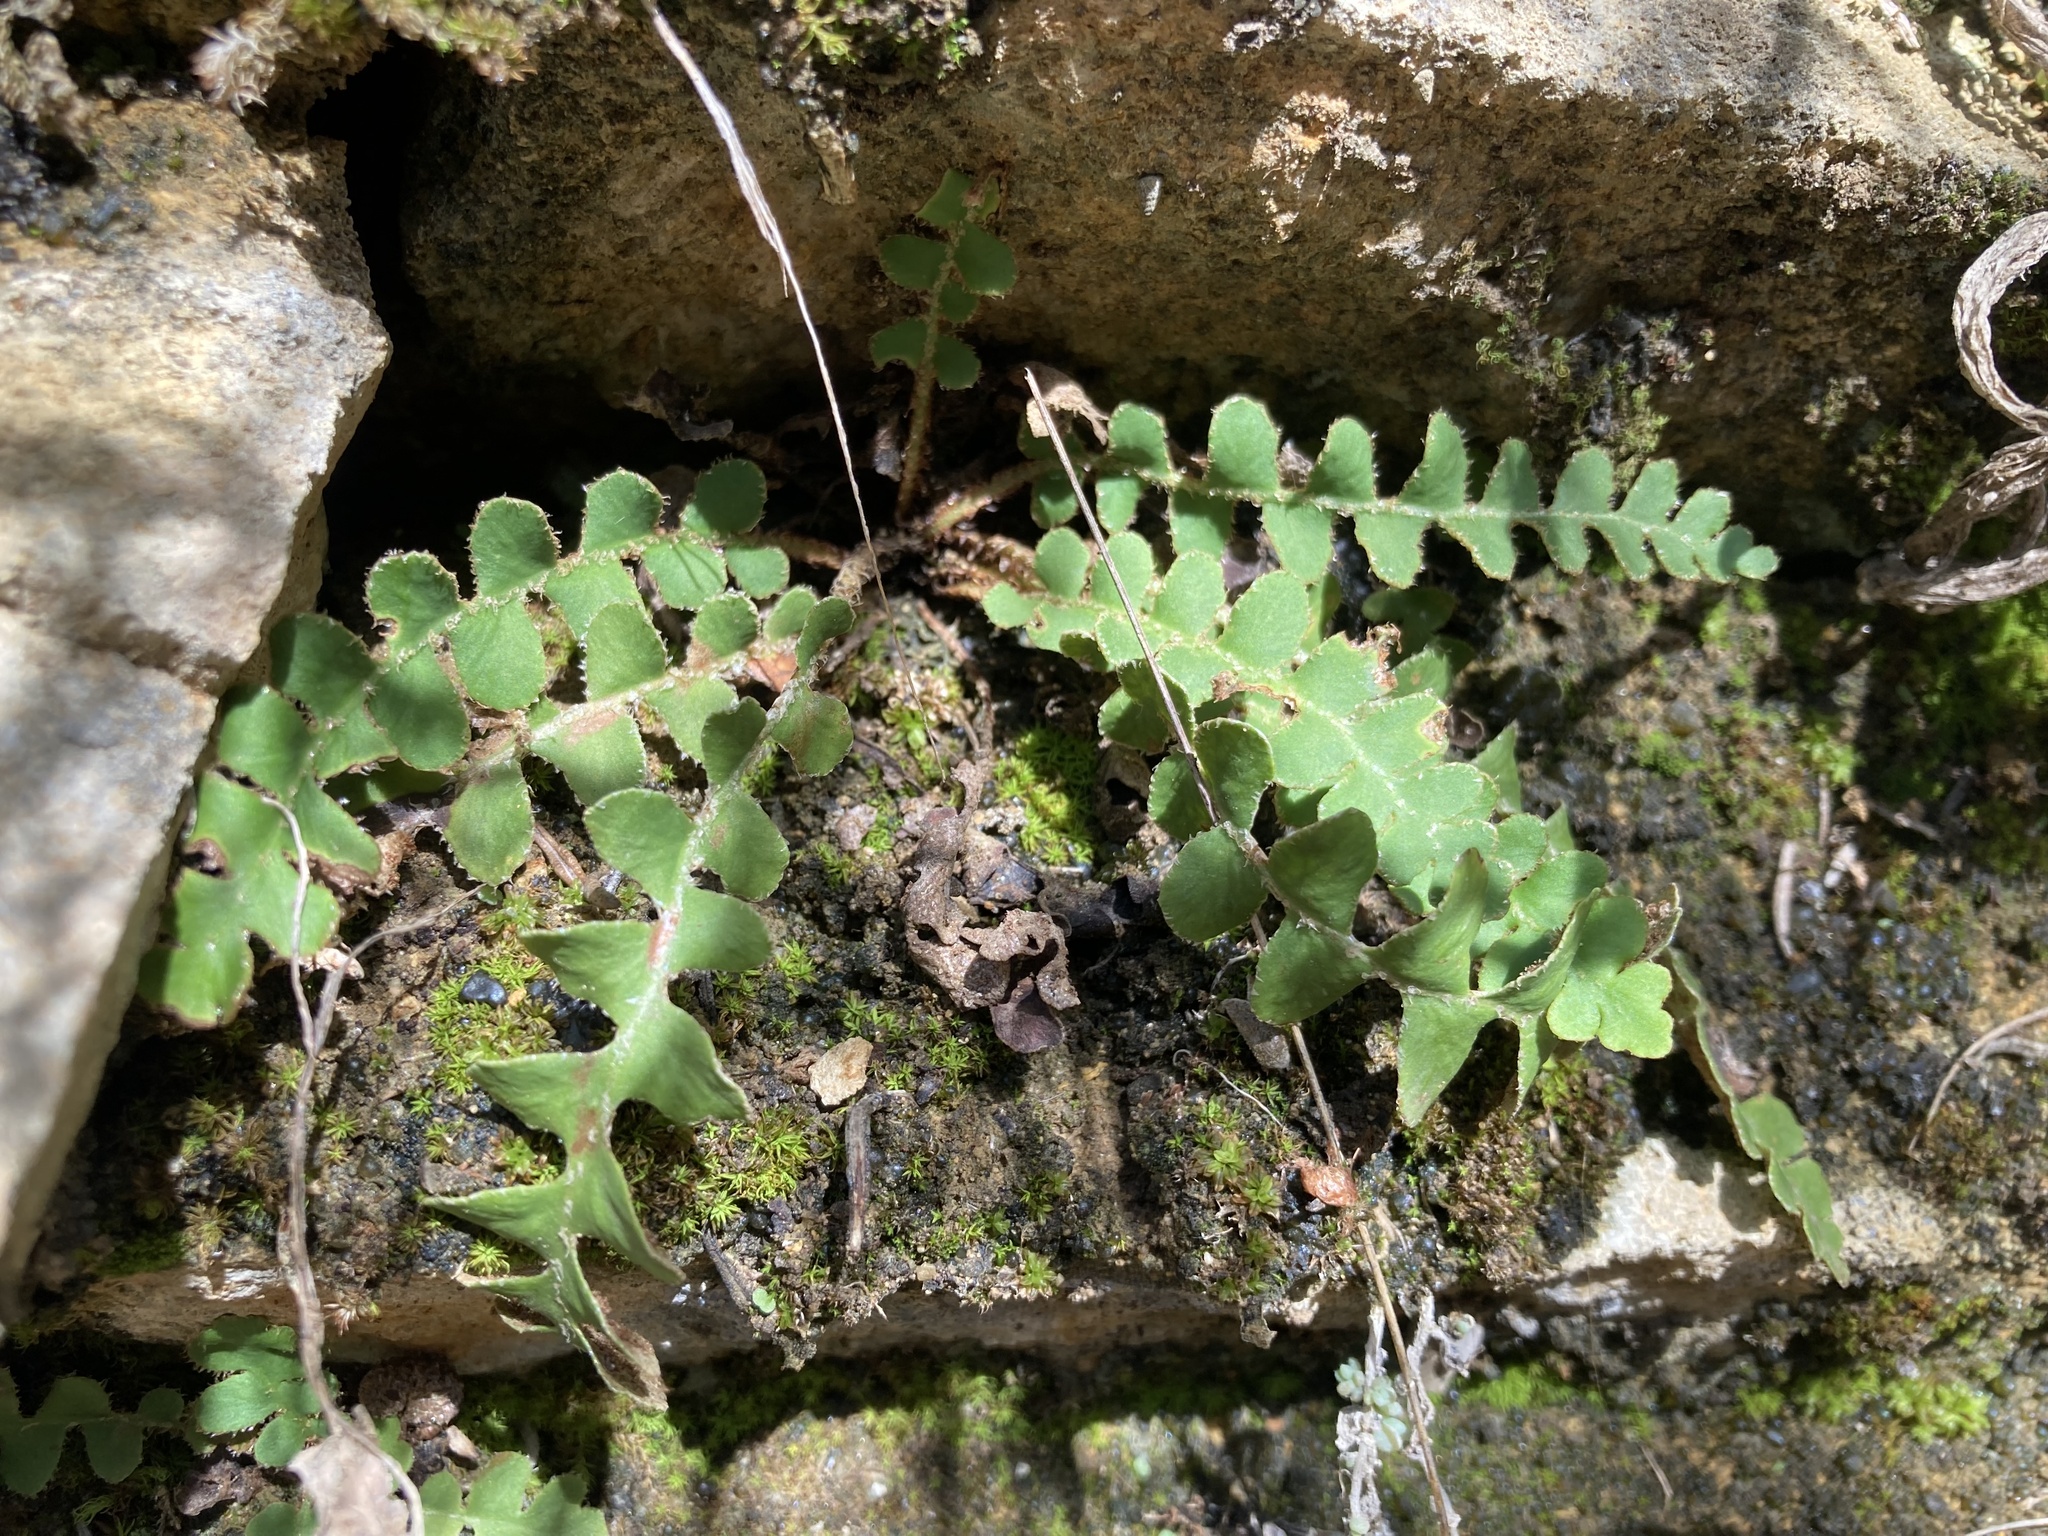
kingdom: Plantae
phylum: Tracheophyta
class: Polypodiopsida
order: Polypodiales
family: Aspleniaceae
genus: Asplenium
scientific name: Asplenium ceterach
